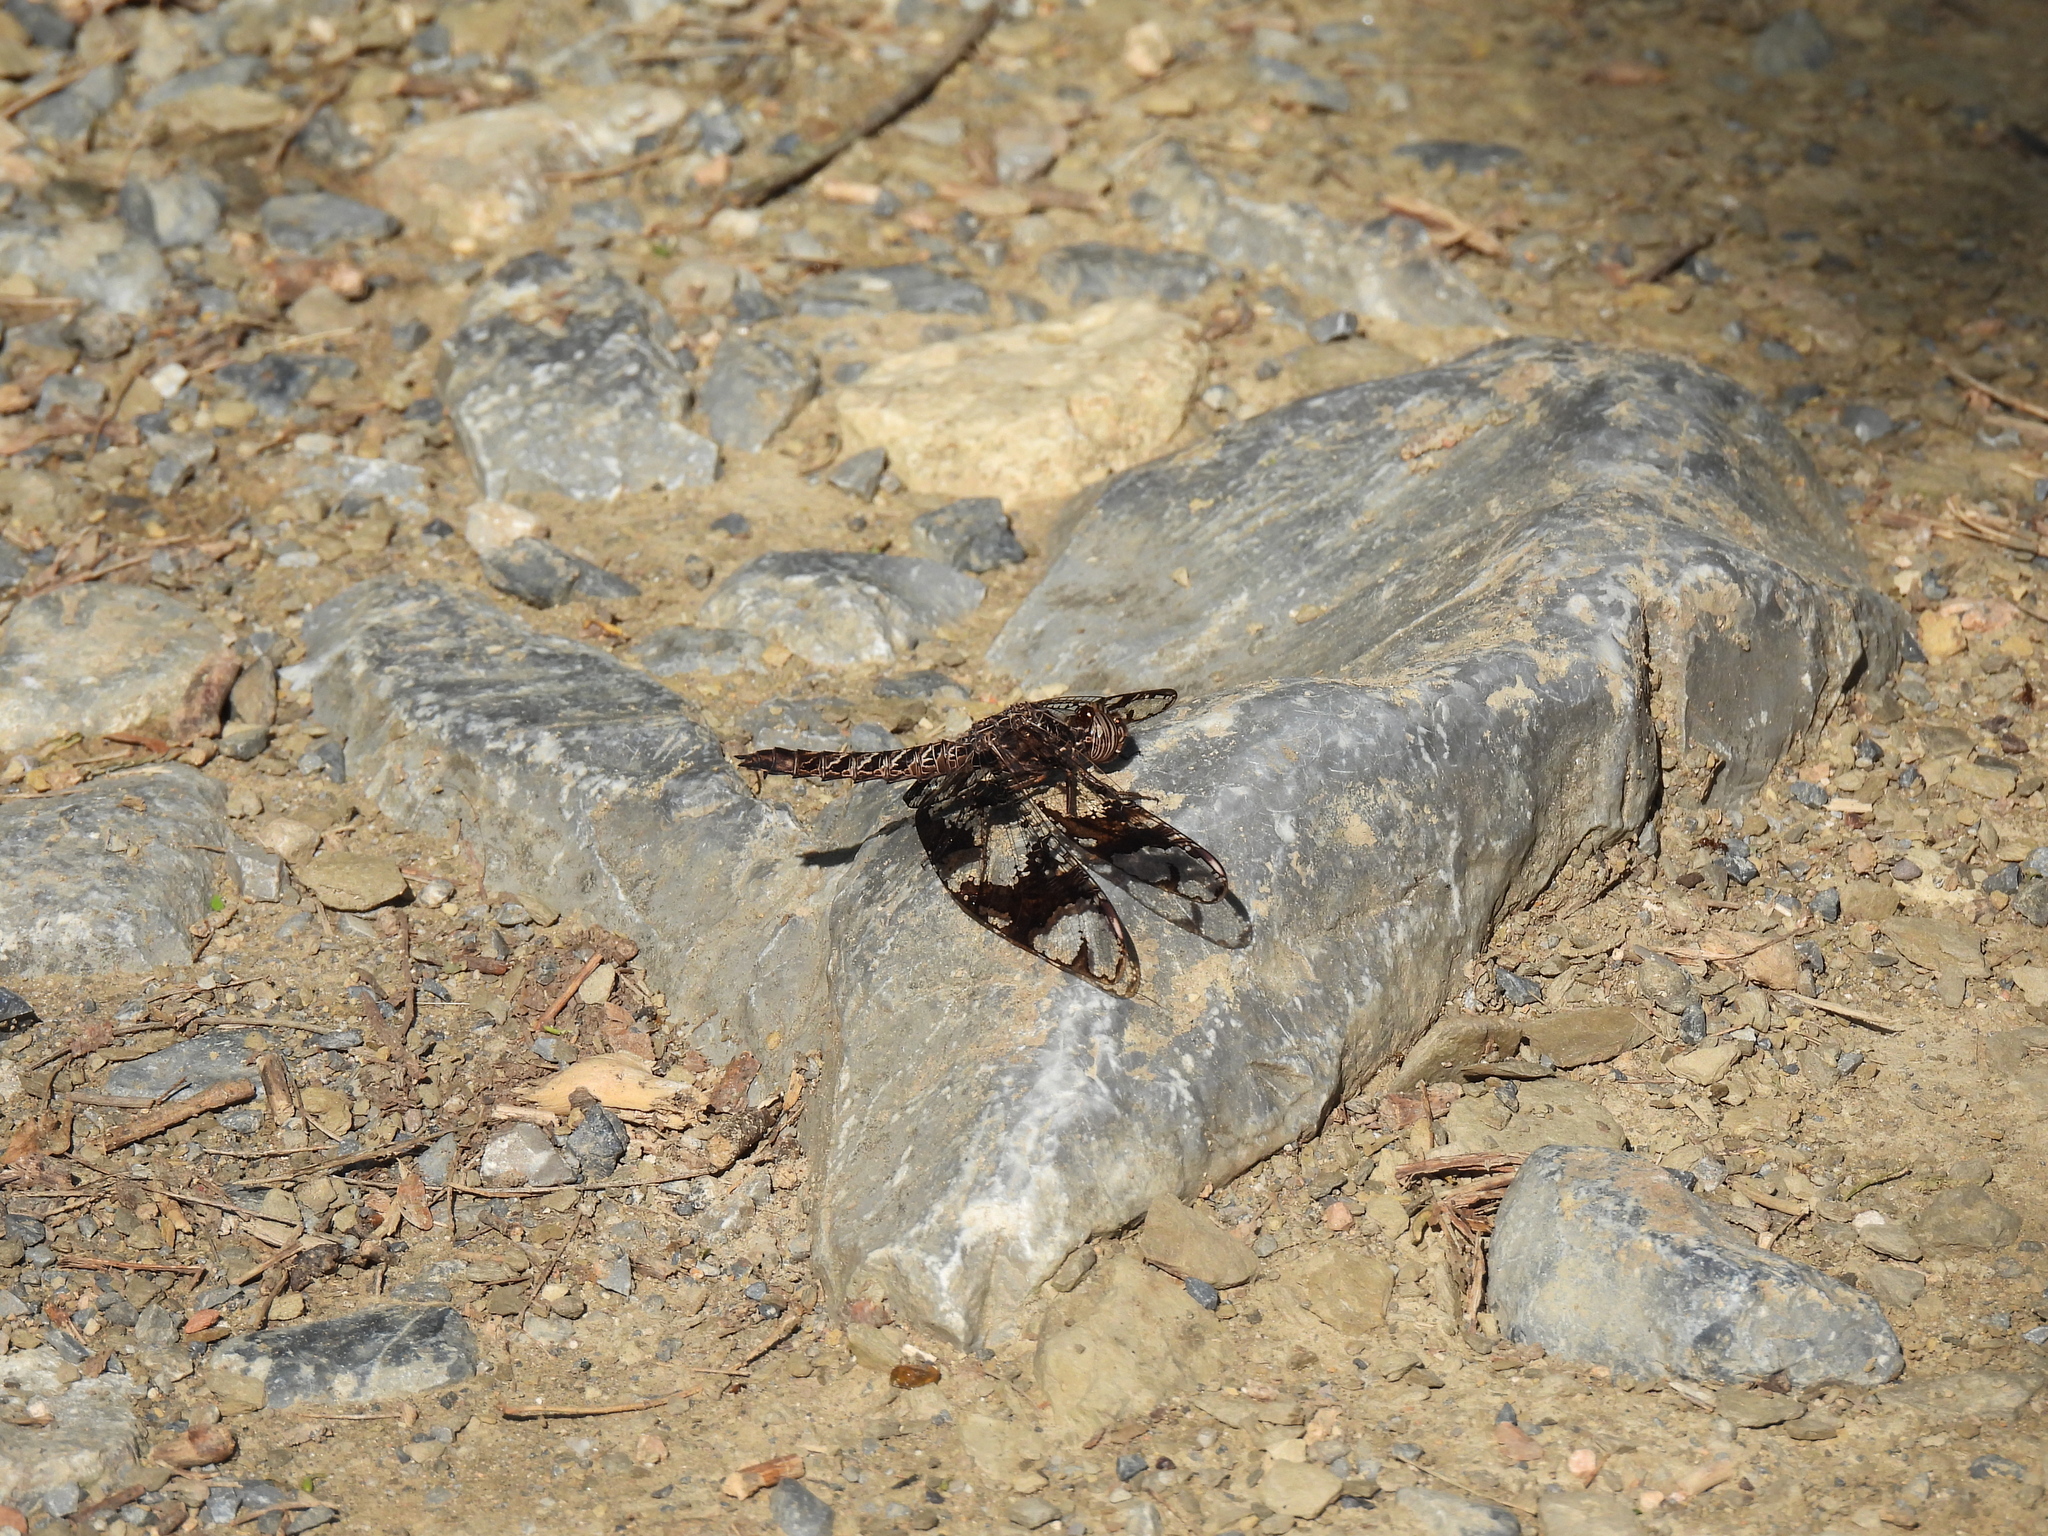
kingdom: Animalia
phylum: Arthropoda
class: Insecta
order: Odonata
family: Libellulidae
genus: Pseudoleon
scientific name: Pseudoleon superbus
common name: Filigree skimmer
